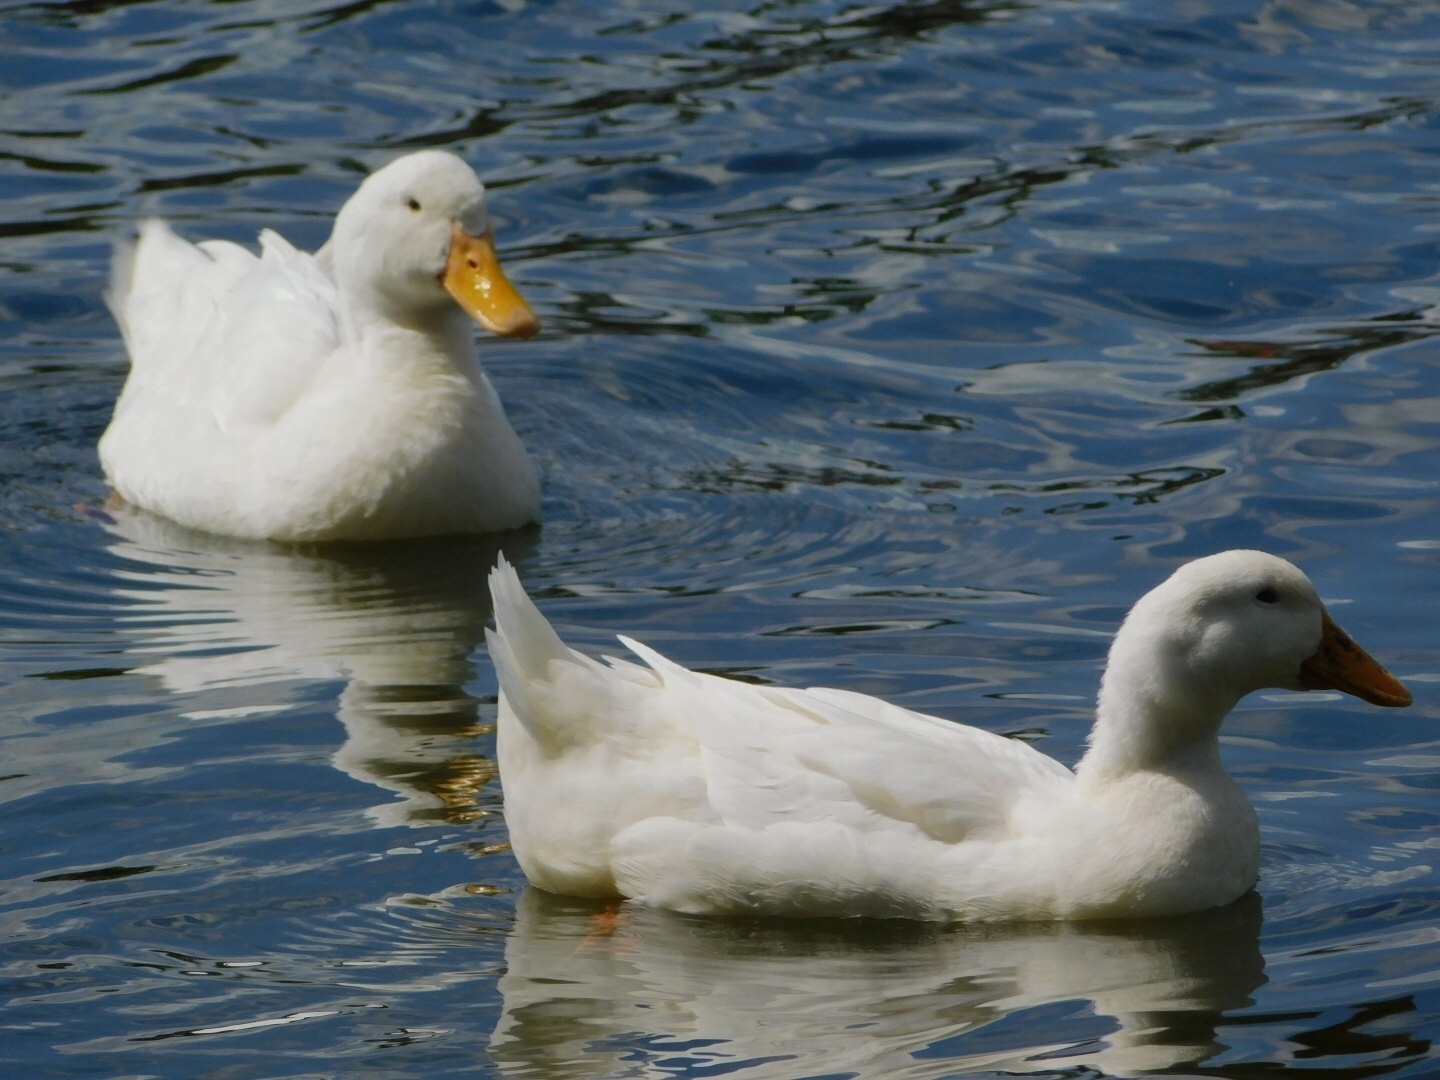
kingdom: Animalia
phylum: Chordata
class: Aves
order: Anseriformes
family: Anatidae
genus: Anas
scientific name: Anas platyrhynchos
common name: Mallard
